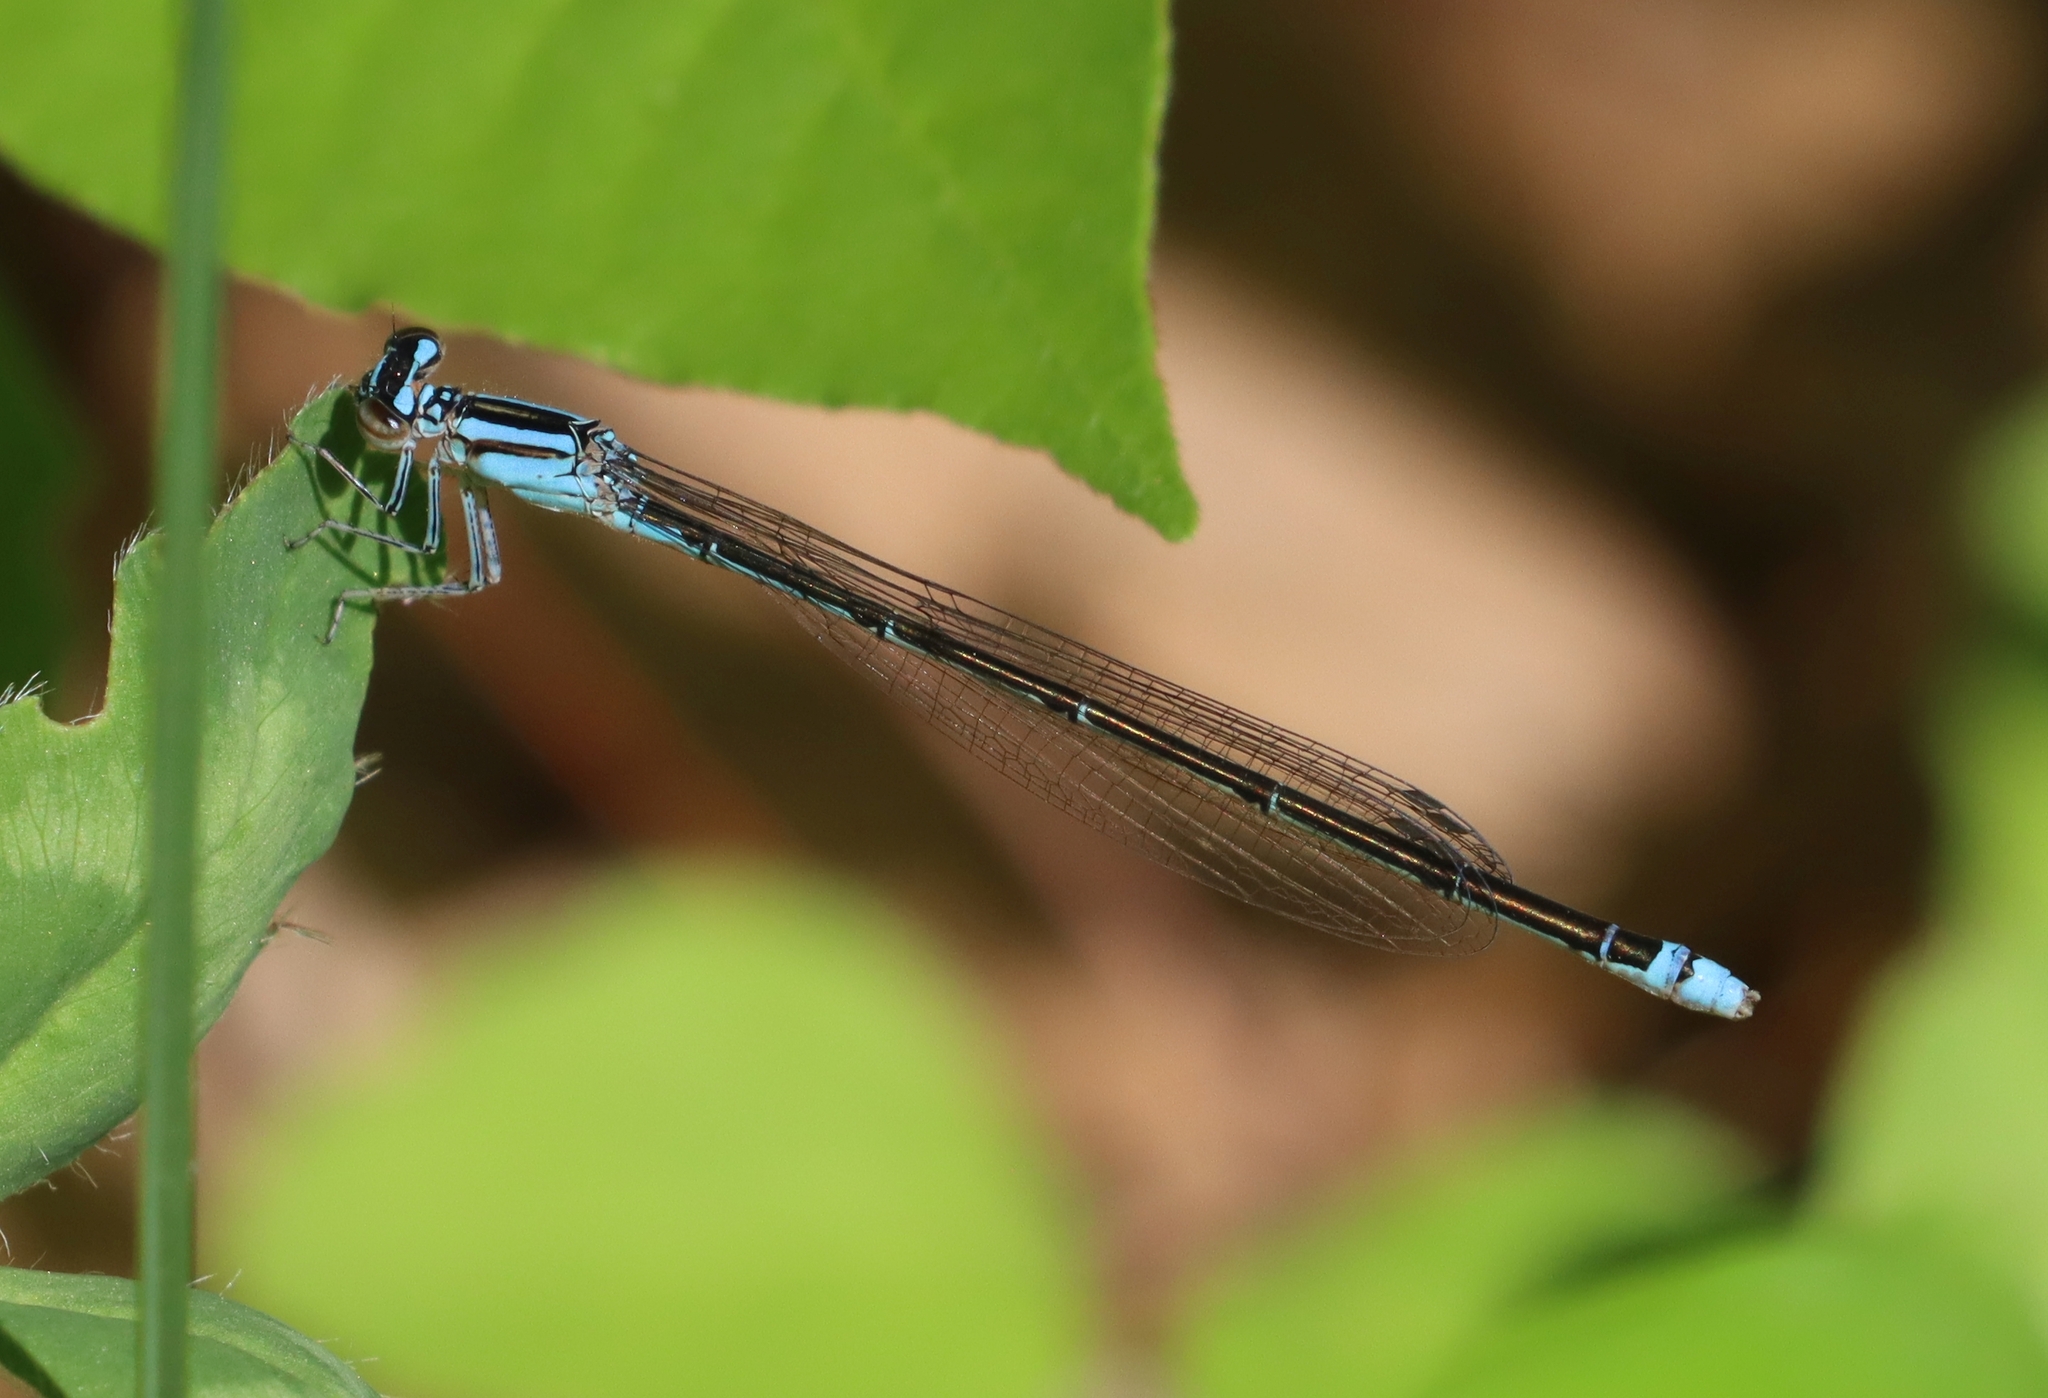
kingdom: Animalia
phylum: Arthropoda
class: Insecta
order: Odonata
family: Coenagrionidae
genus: Enallagma
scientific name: Enallagma divagans
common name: Turquoise bluet
